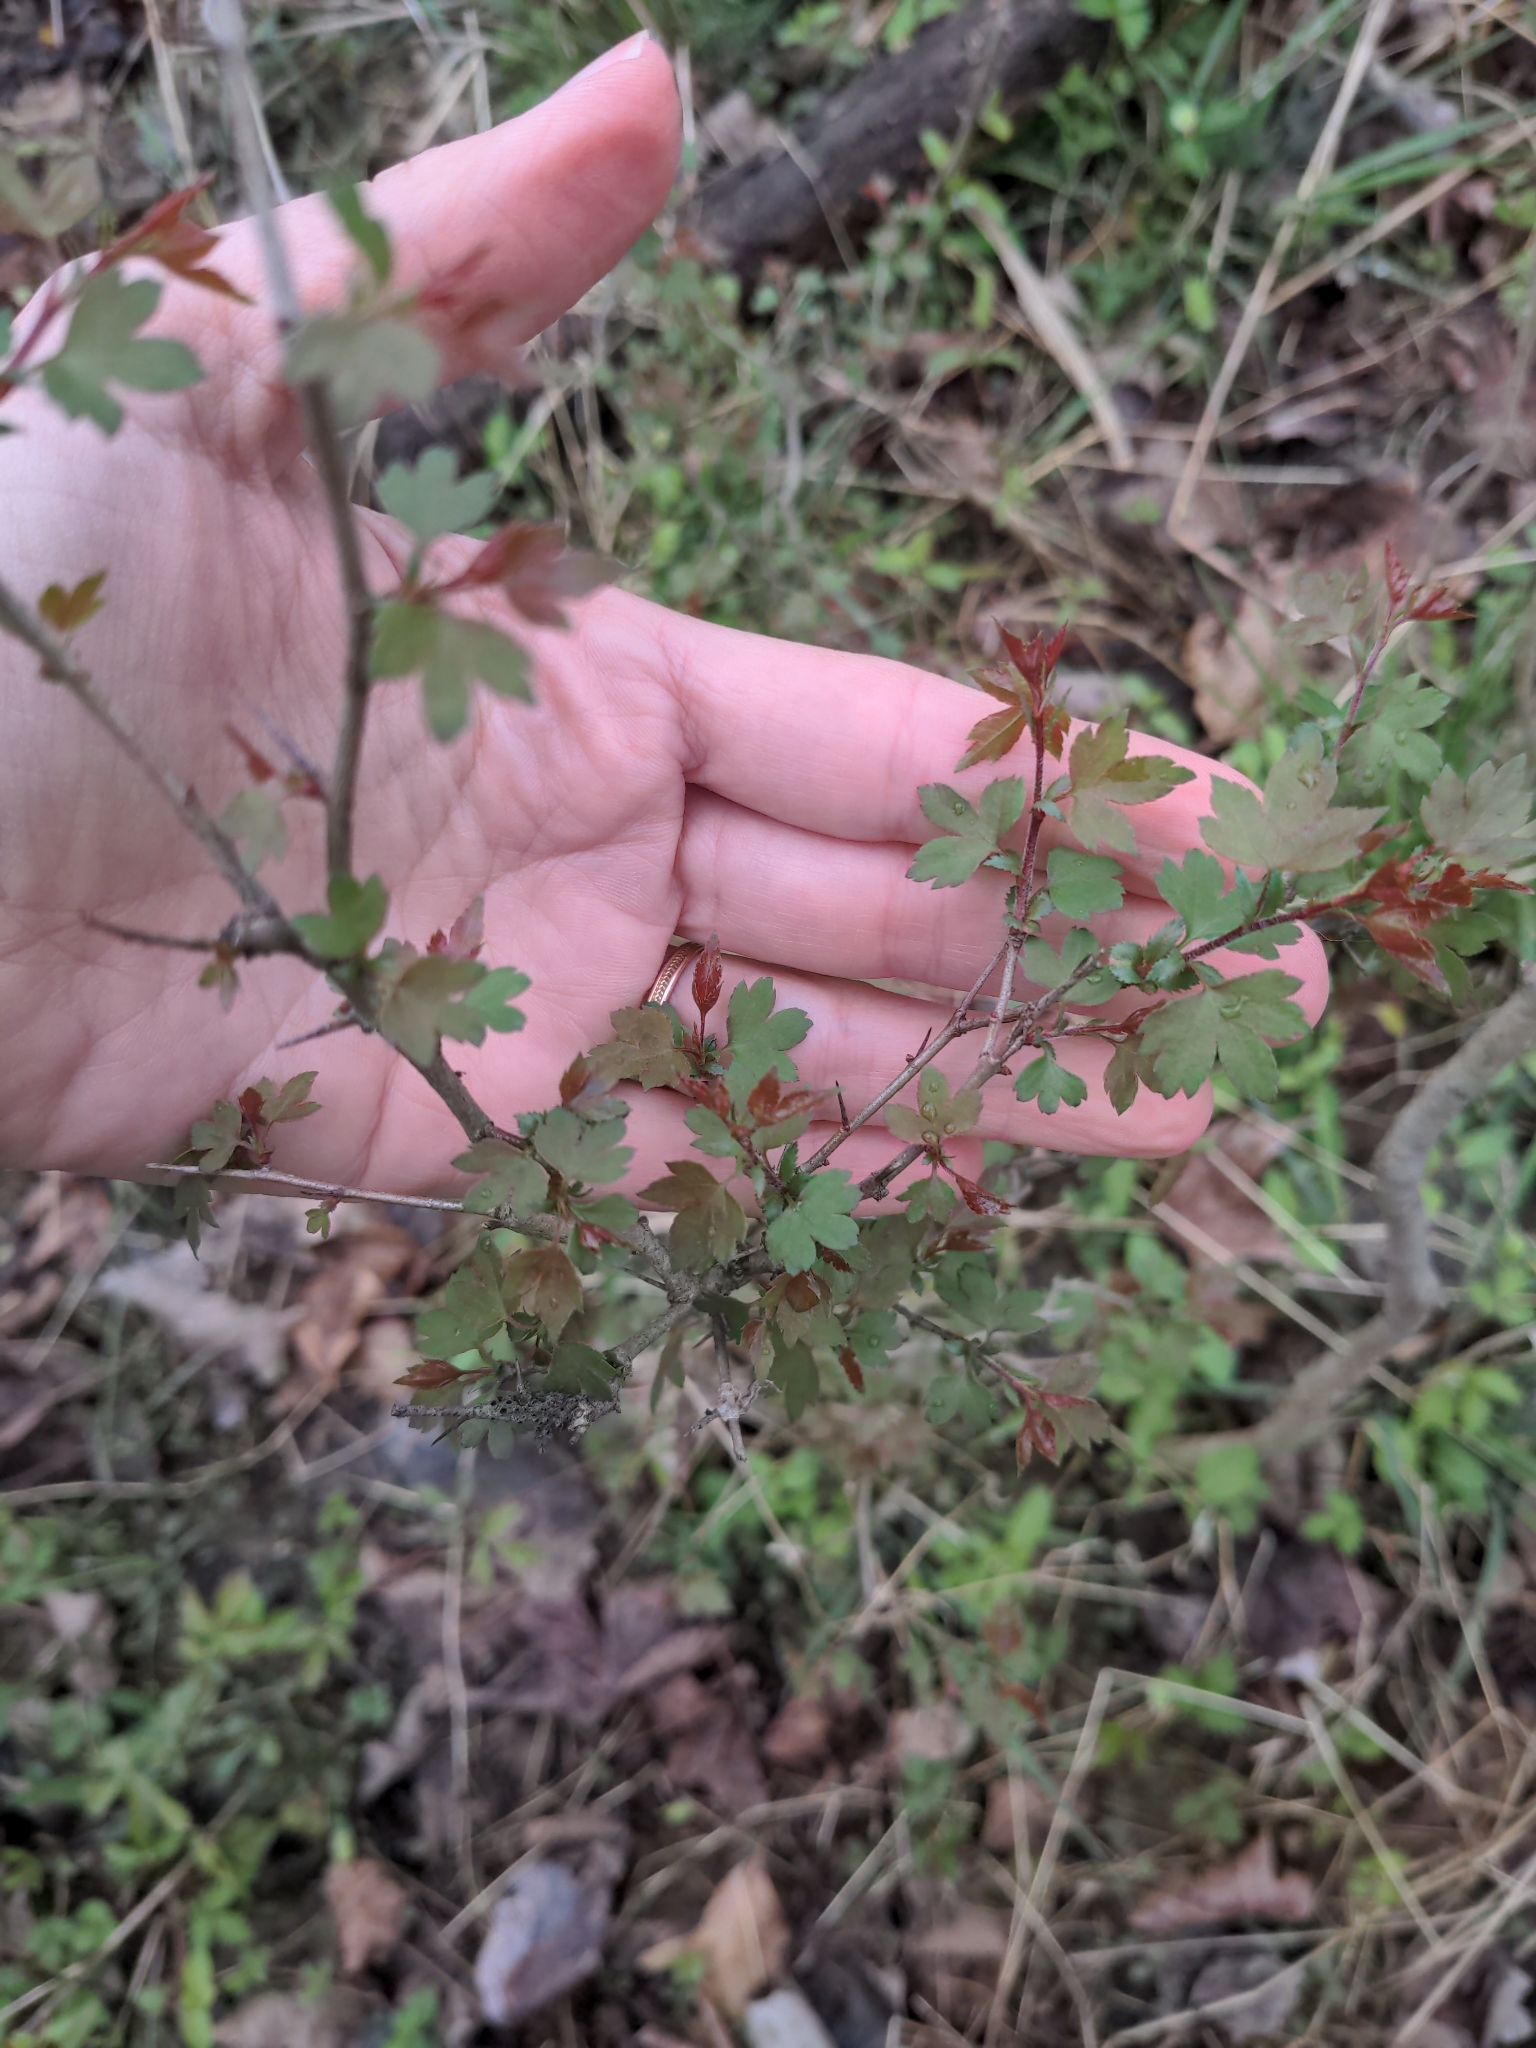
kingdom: Plantae
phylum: Tracheophyta
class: Magnoliopsida
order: Rosales
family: Rosaceae
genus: Crataegus
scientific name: Crataegus marshallii
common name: Parsley-hawthorn
